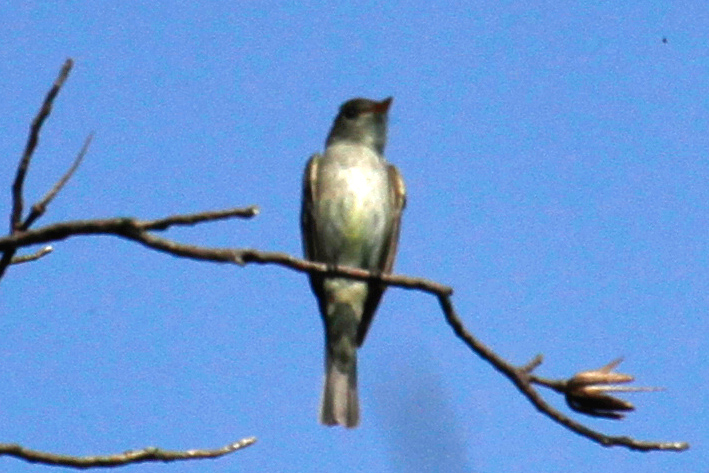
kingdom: Animalia
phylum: Chordata
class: Aves
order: Passeriformes
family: Tyrannidae
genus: Contopus
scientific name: Contopus virens
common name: Eastern wood-pewee
